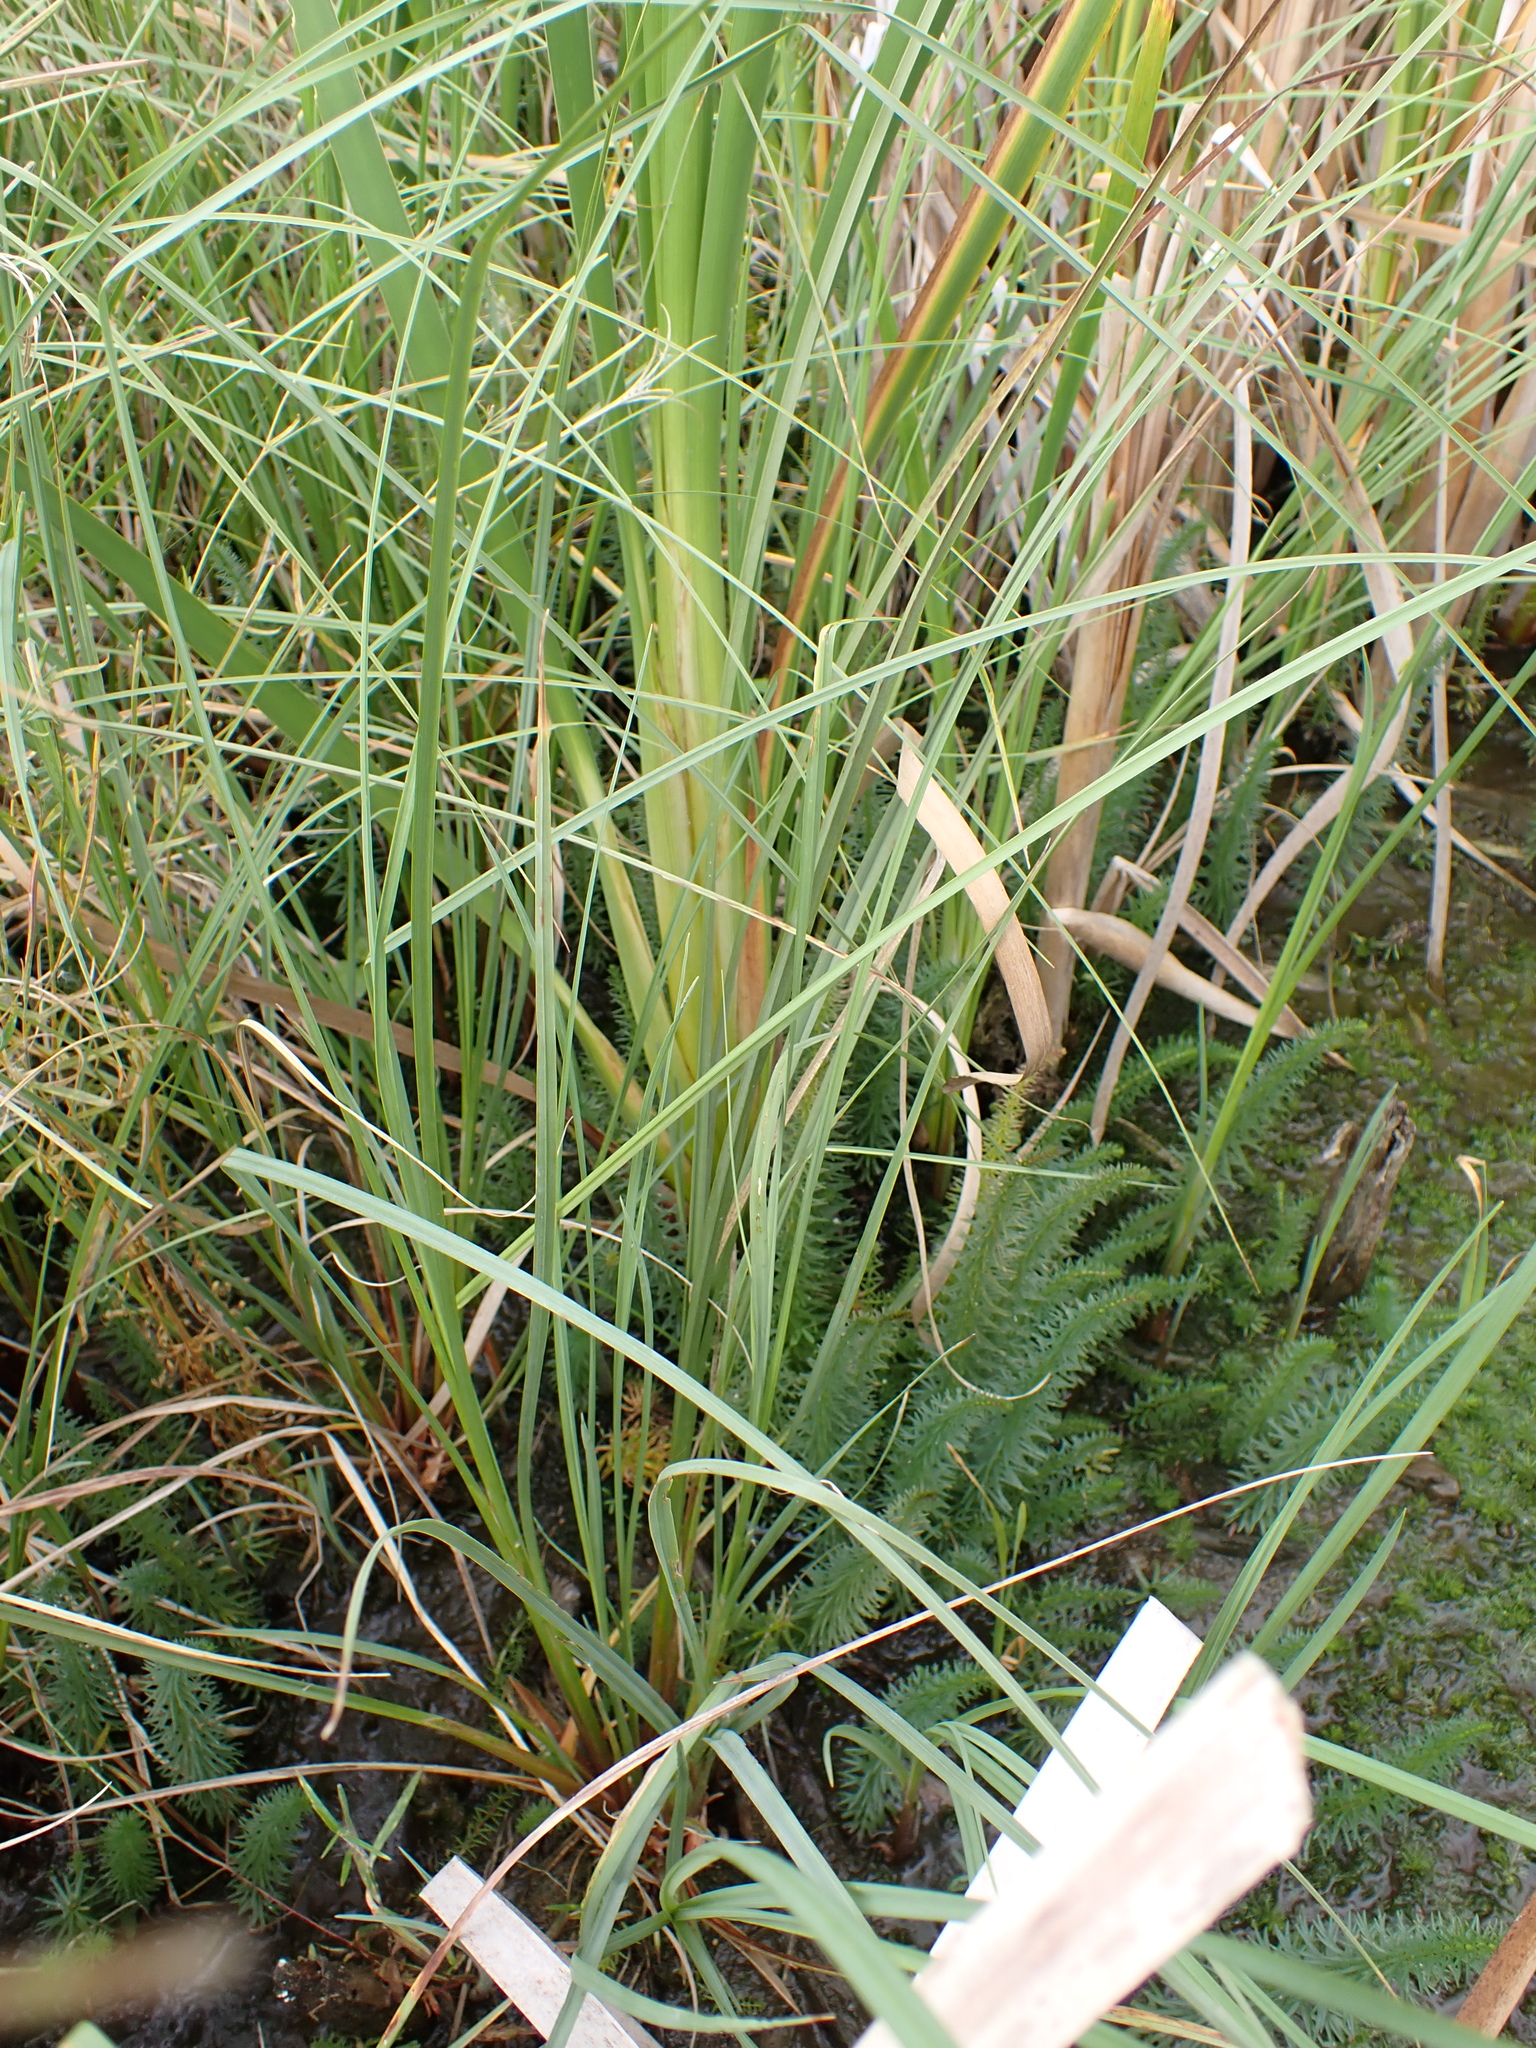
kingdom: Plantae
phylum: Tracheophyta
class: Magnoliopsida
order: Lamiales
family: Plantaginaceae
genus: Hippuris
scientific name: Hippuris vulgaris
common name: Mare's-tail
